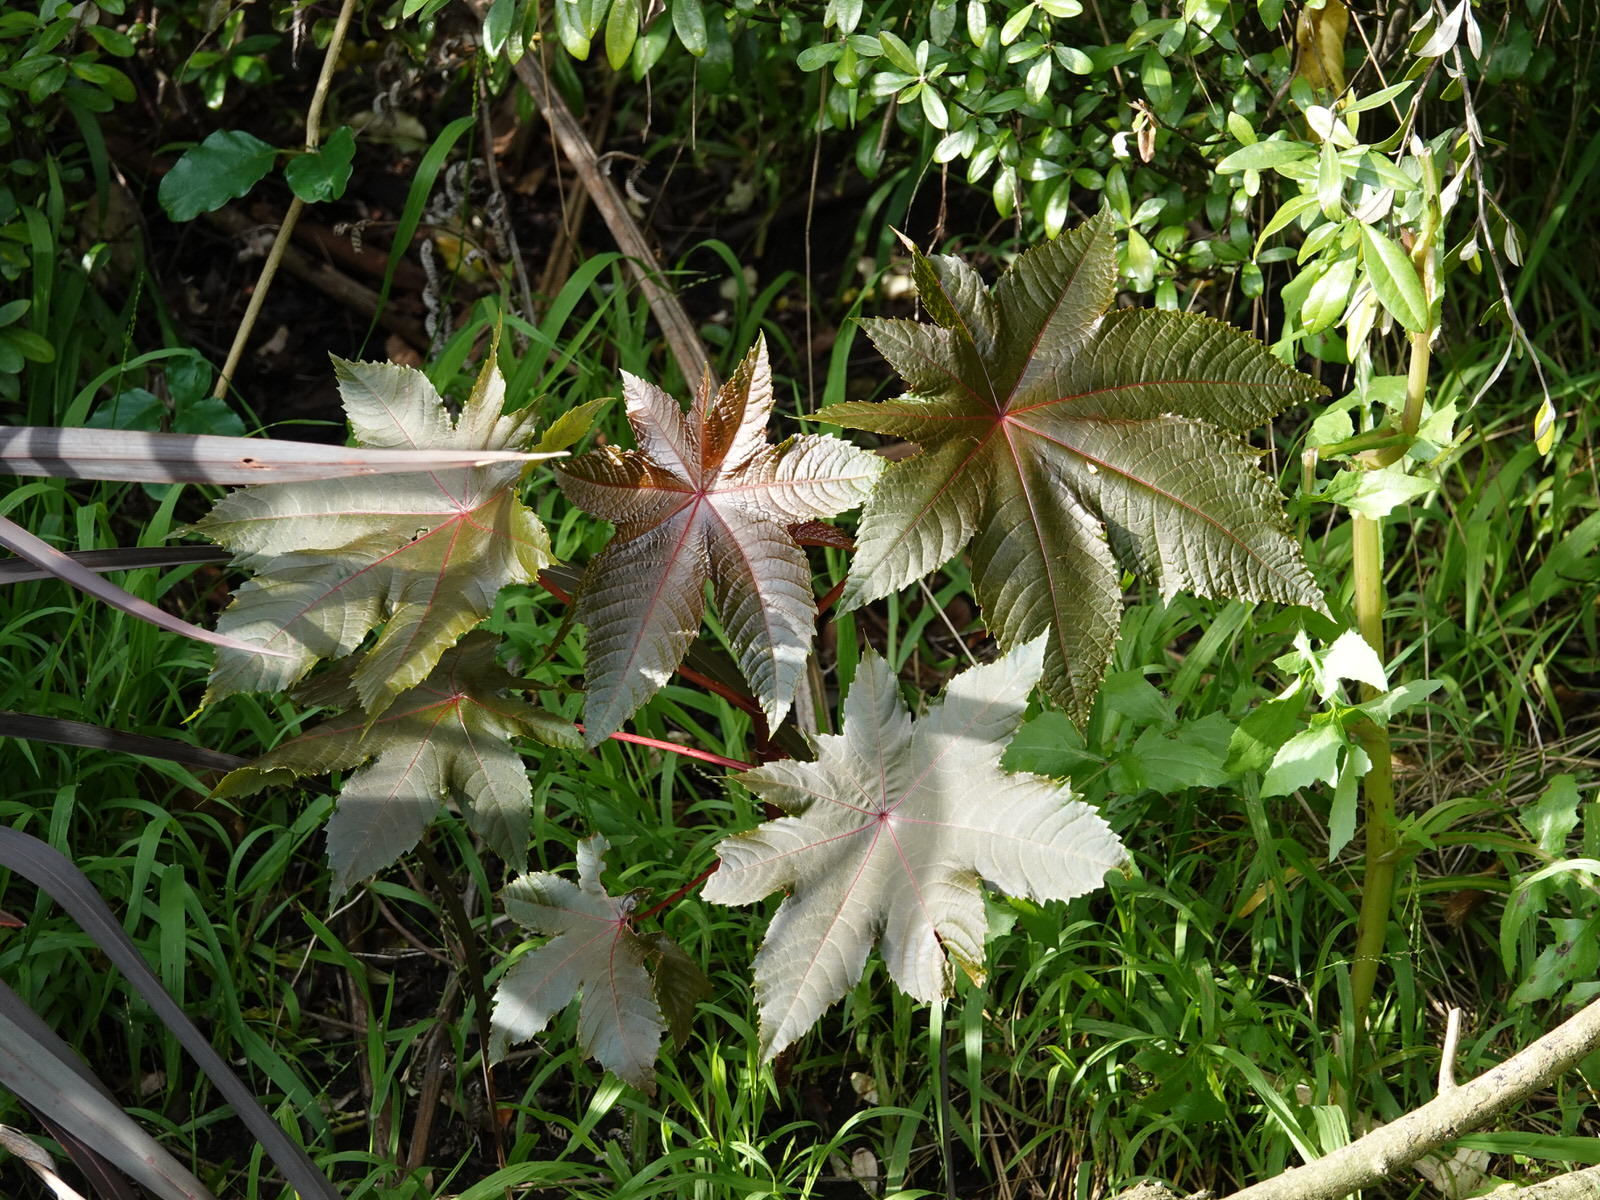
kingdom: Plantae
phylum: Tracheophyta
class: Magnoliopsida
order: Malpighiales
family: Euphorbiaceae
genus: Ricinus
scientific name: Ricinus communis
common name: Castor-oil-plant
